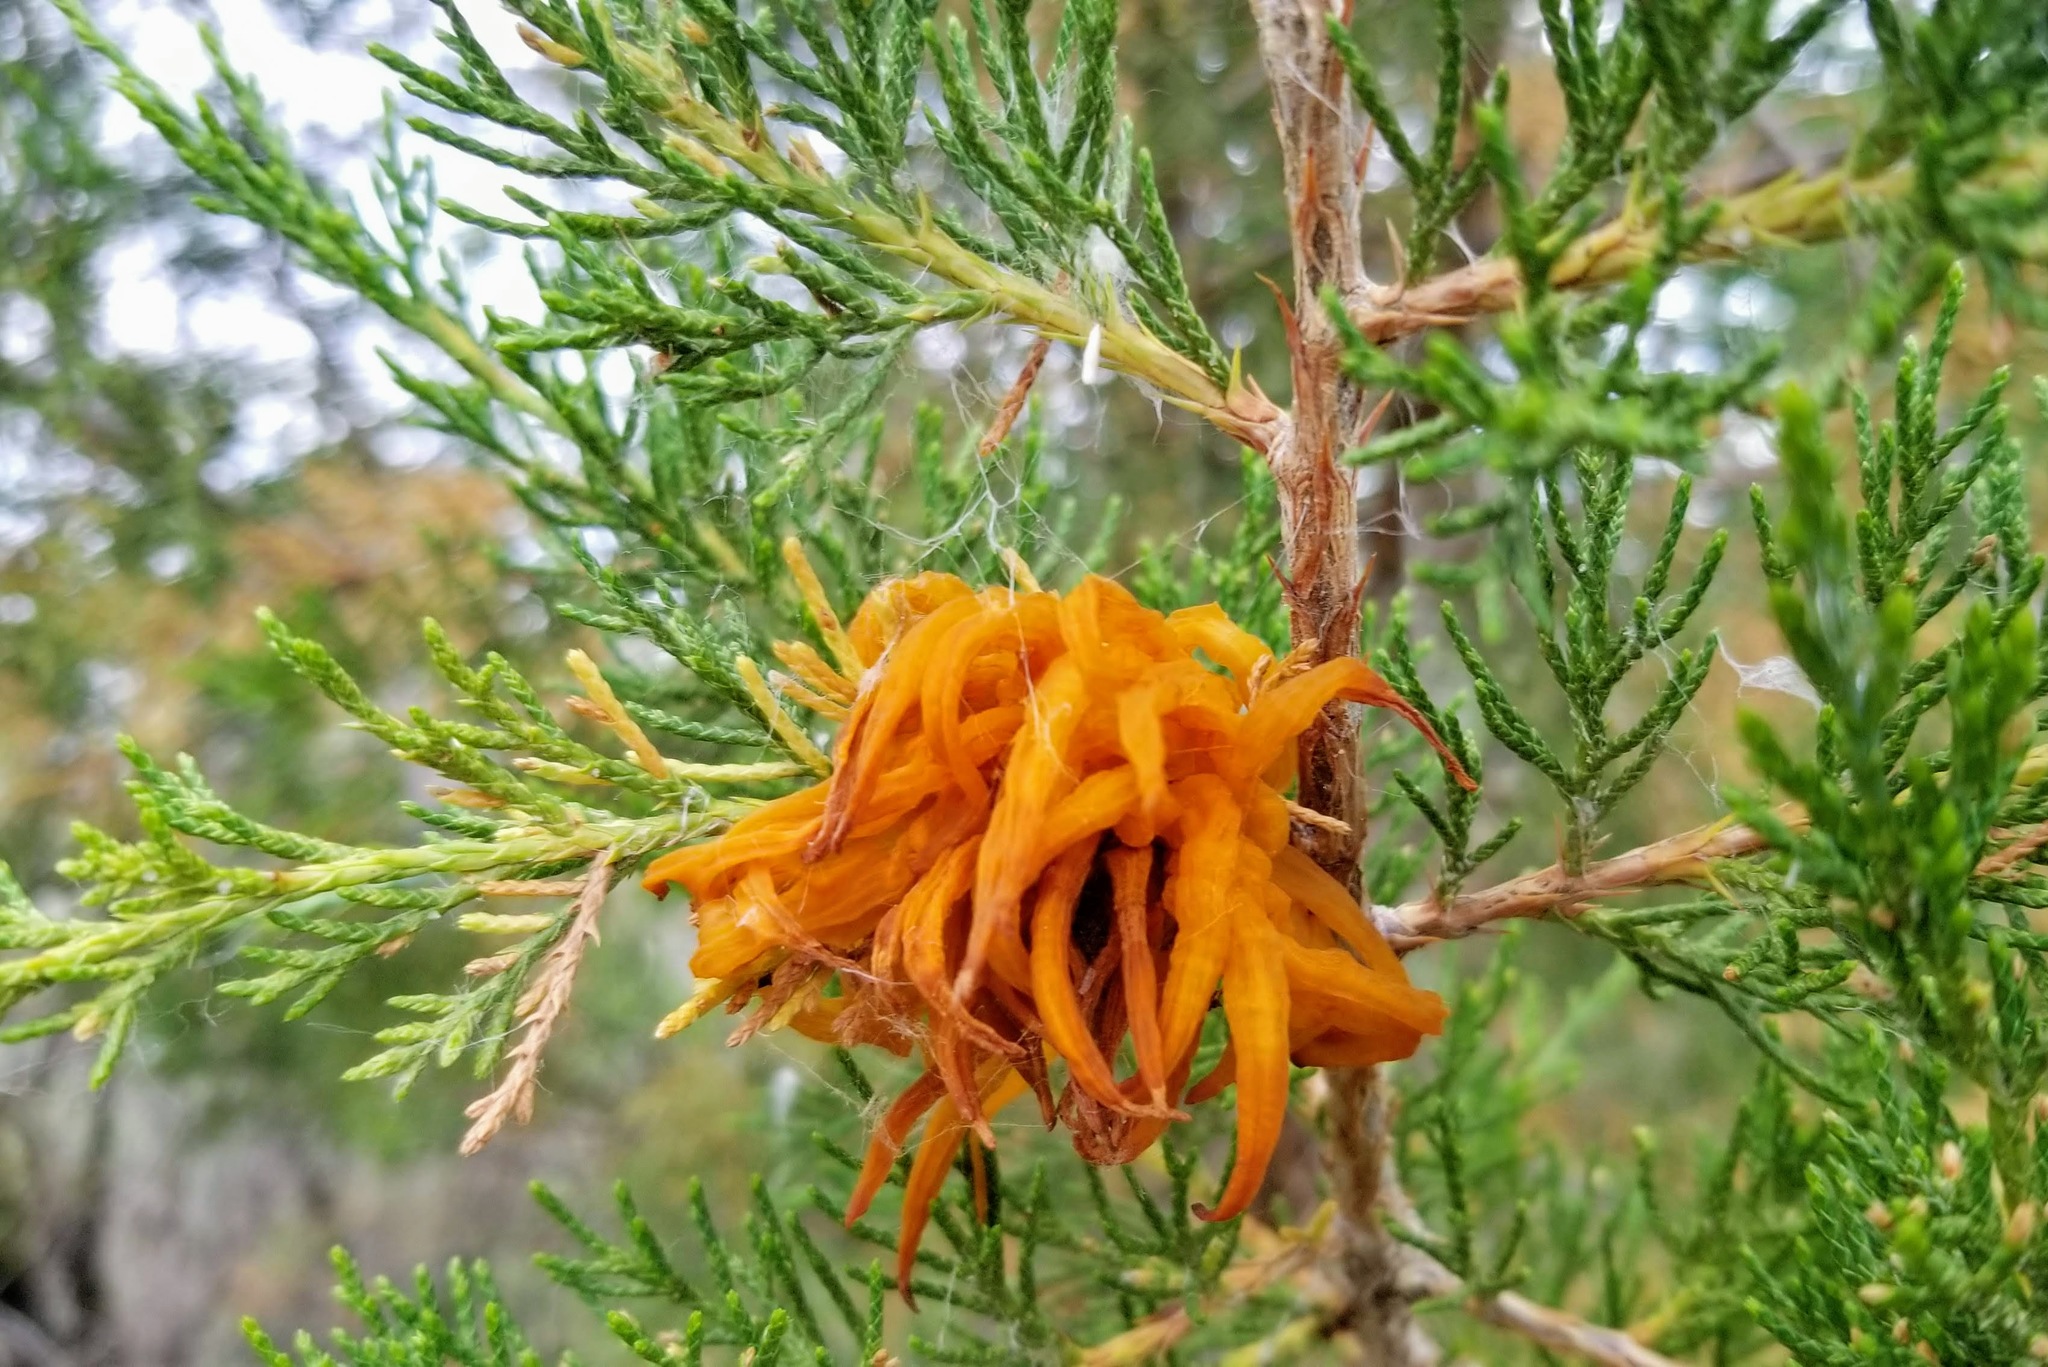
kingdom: Fungi
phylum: Basidiomycota
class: Pucciniomycetes
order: Pucciniales
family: Gymnosporangiaceae
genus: Gymnosporangium
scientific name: Gymnosporangium juniperi-virginianae
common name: Juniper-apple rust
